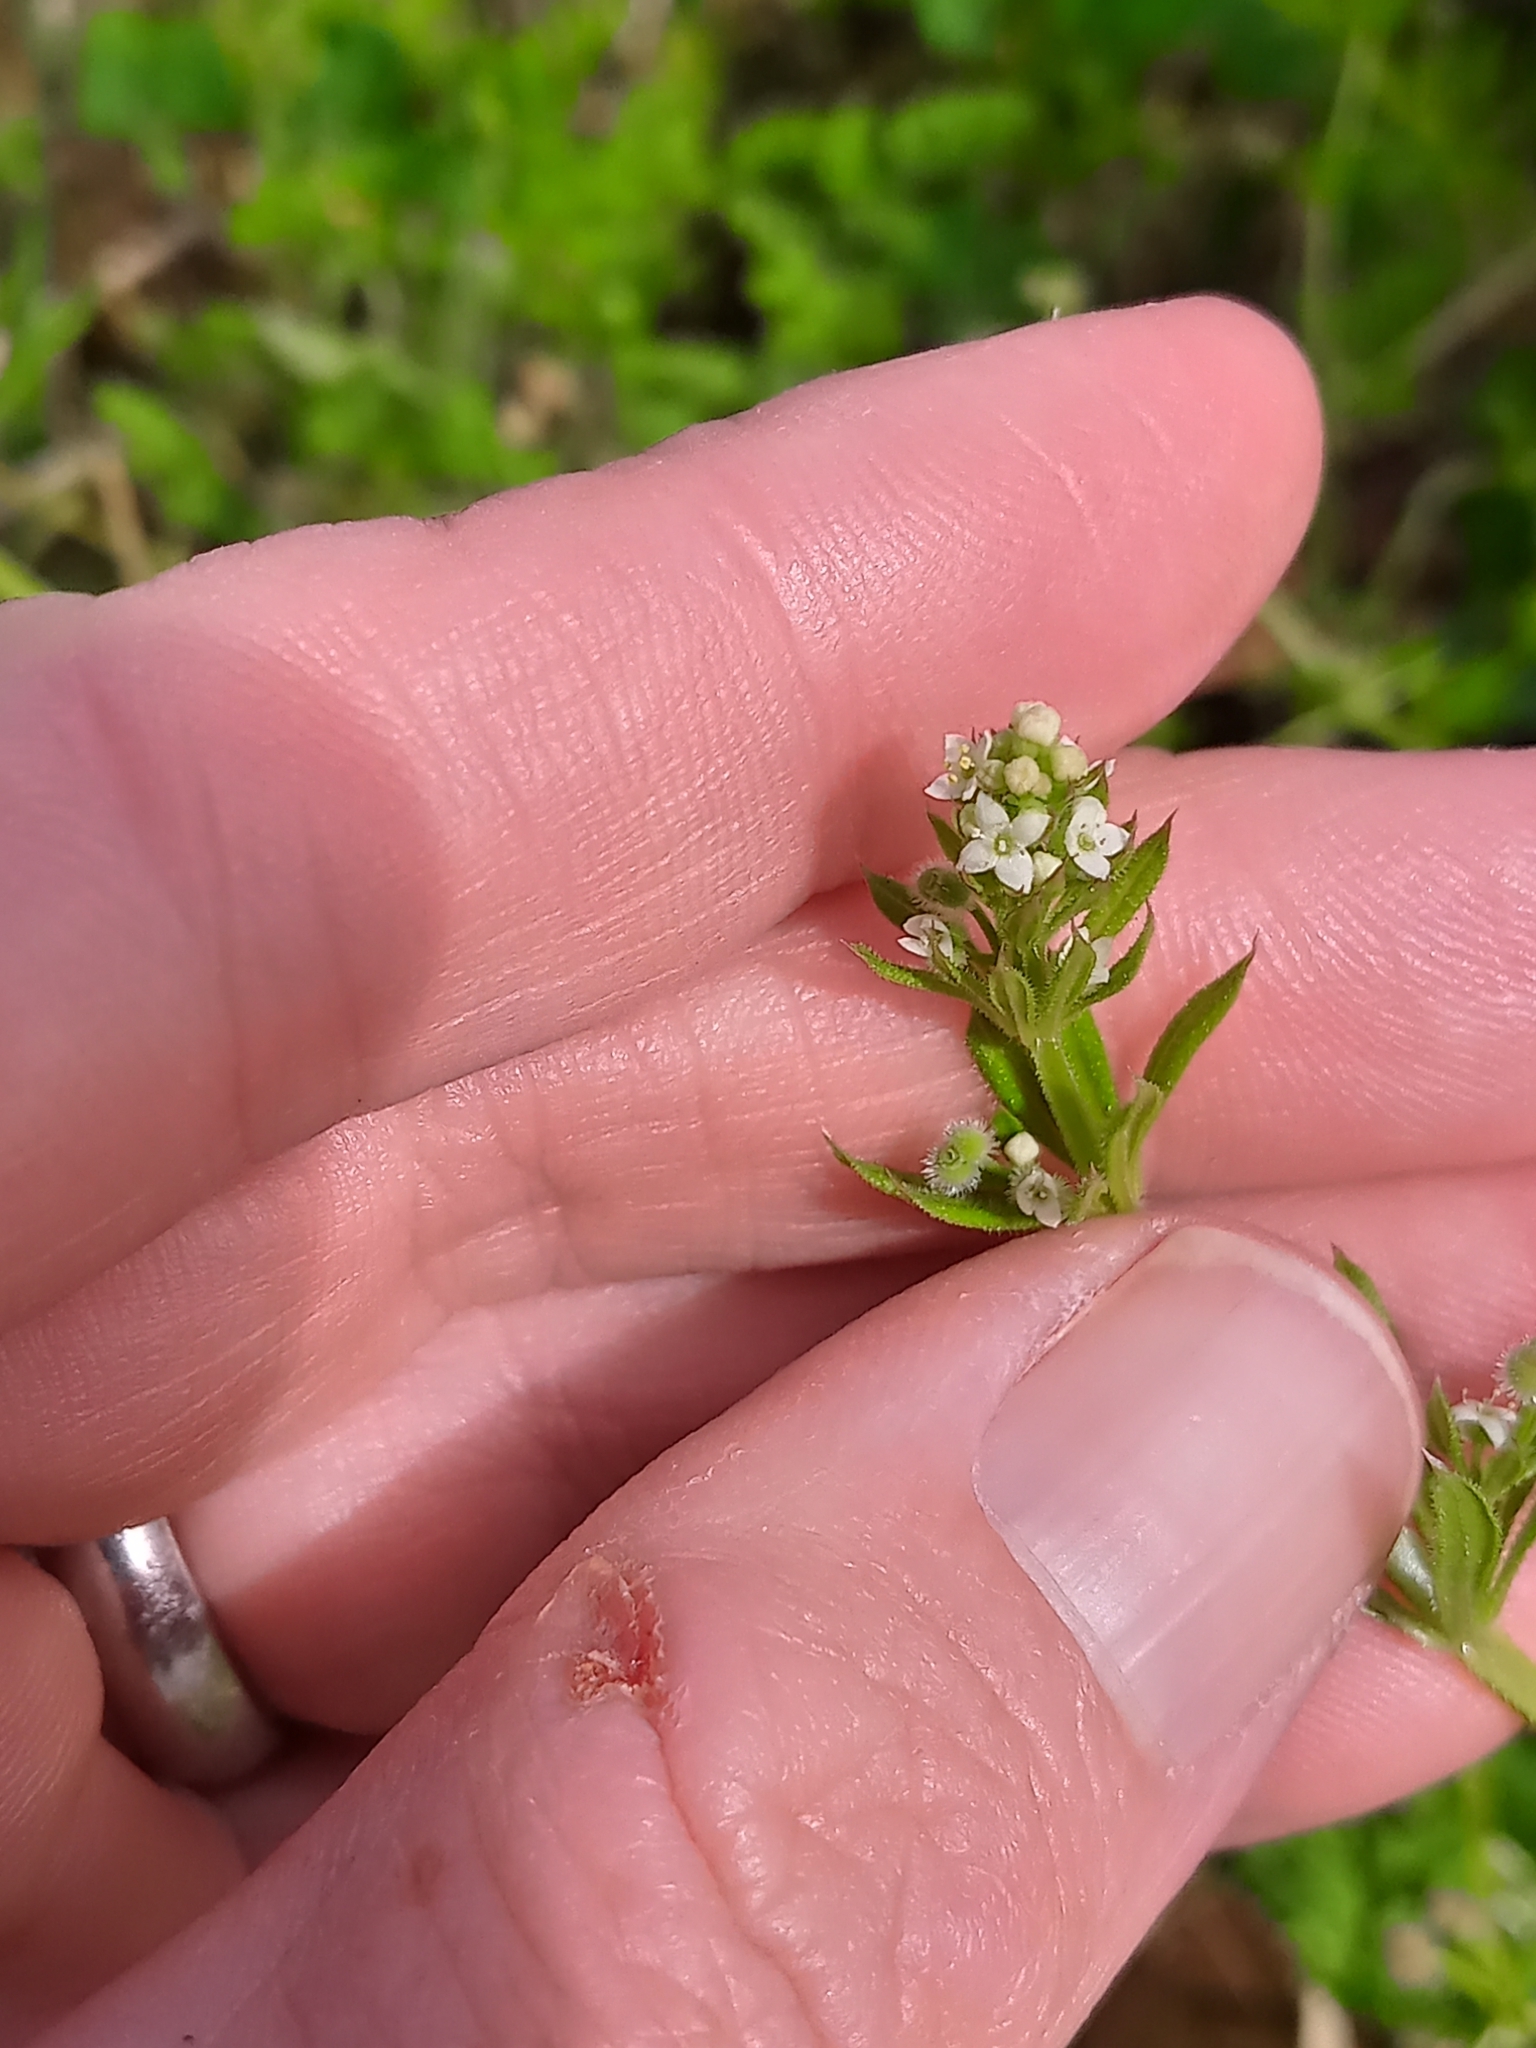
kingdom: Plantae
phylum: Tracheophyta
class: Magnoliopsida
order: Gentianales
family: Rubiaceae
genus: Galium
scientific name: Galium aparine
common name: Cleavers
